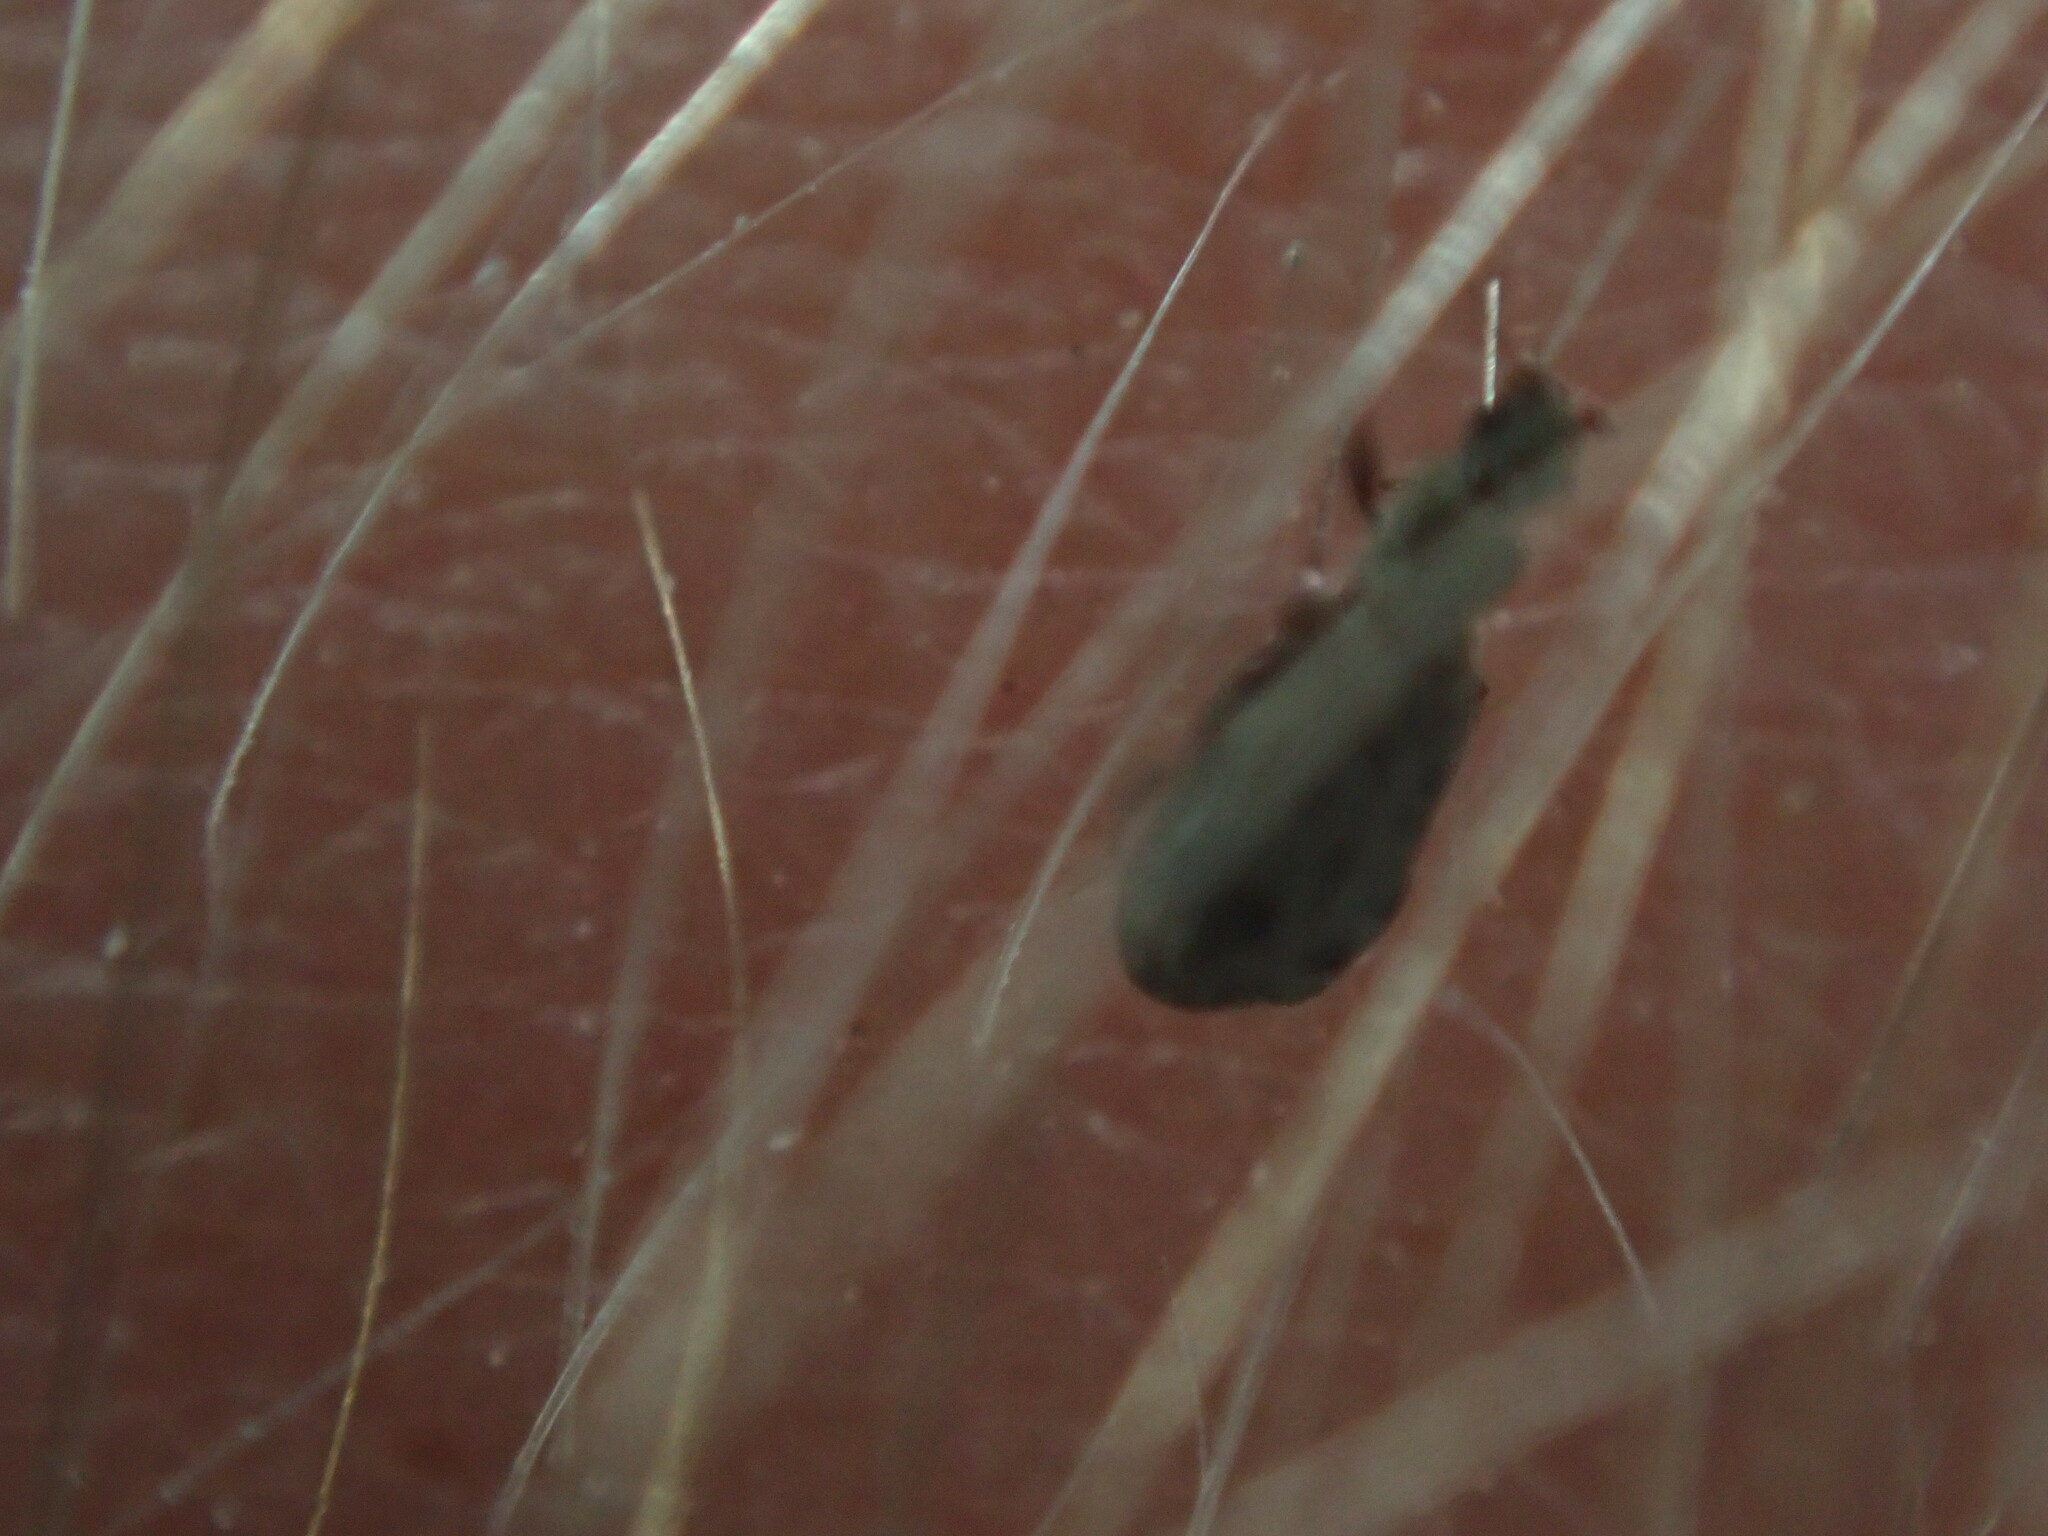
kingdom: Animalia
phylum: Arthropoda
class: Insecta
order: Coleoptera
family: Latridiidae
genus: Cartodere
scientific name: Cartodere nodifer
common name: Humpbacked minute scavenger beetle
